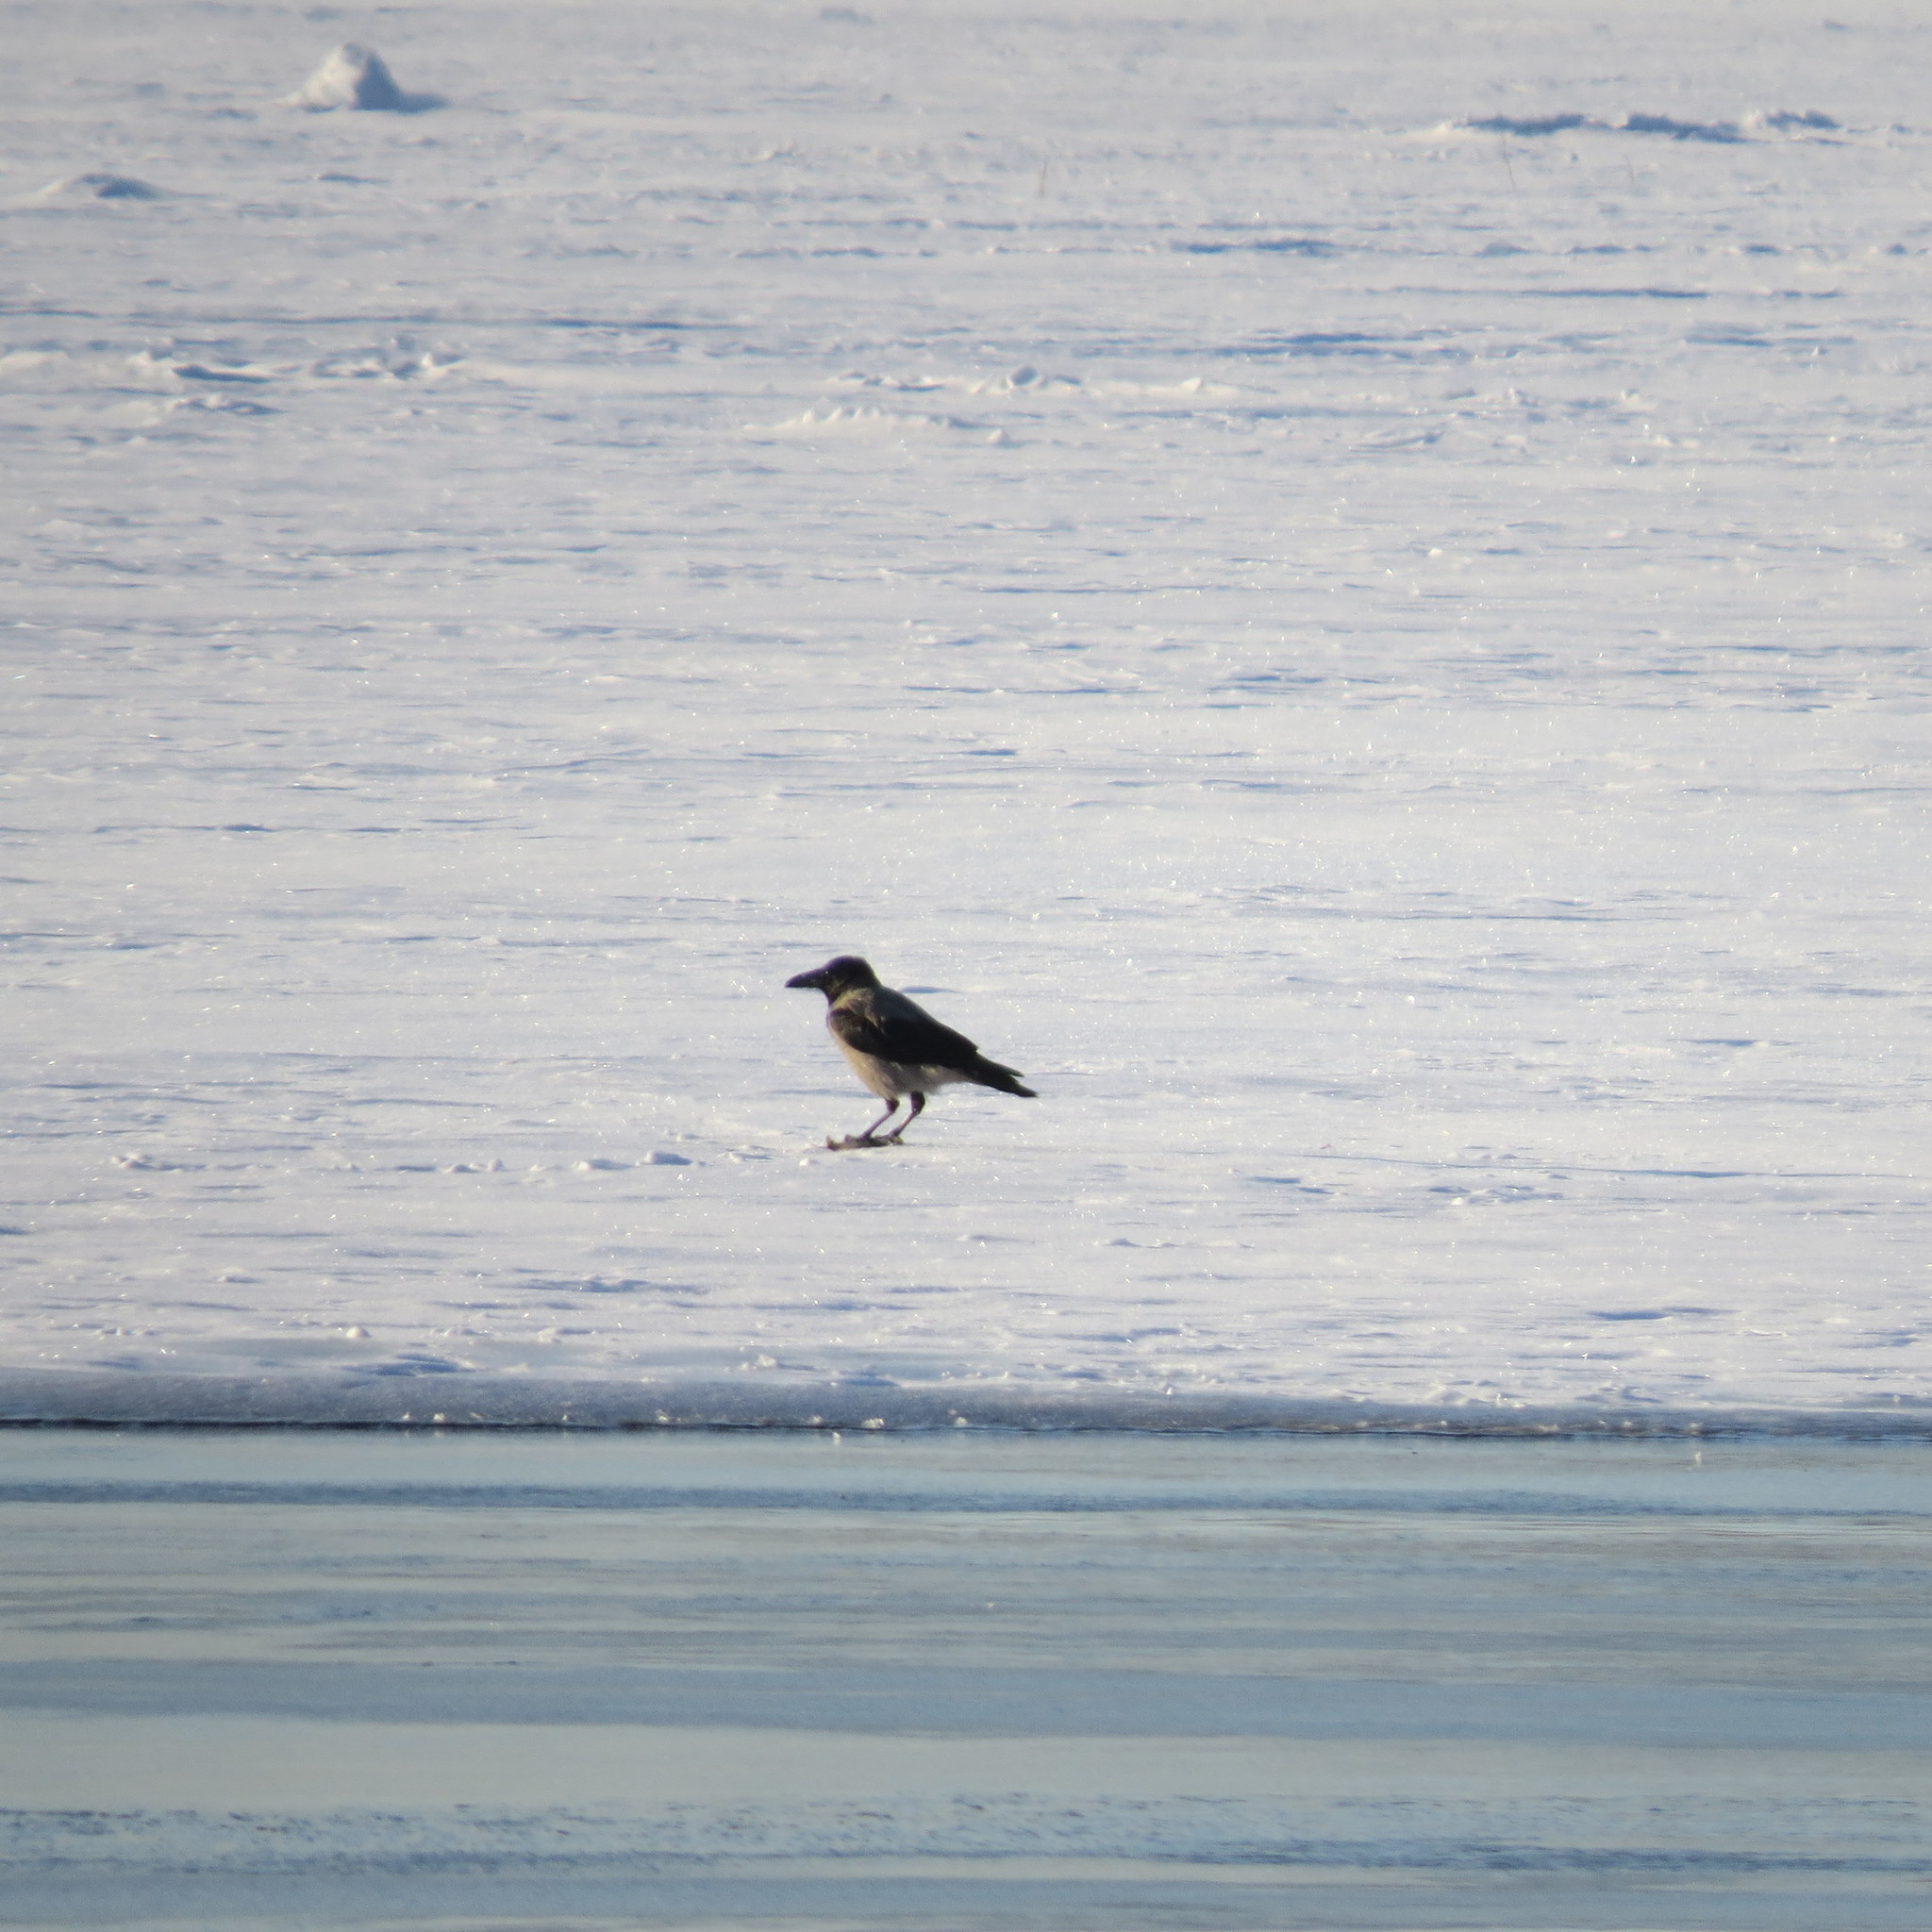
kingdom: Animalia
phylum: Chordata
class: Aves
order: Passeriformes
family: Corvidae
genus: Corvus
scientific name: Corvus cornix
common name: Hooded crow
